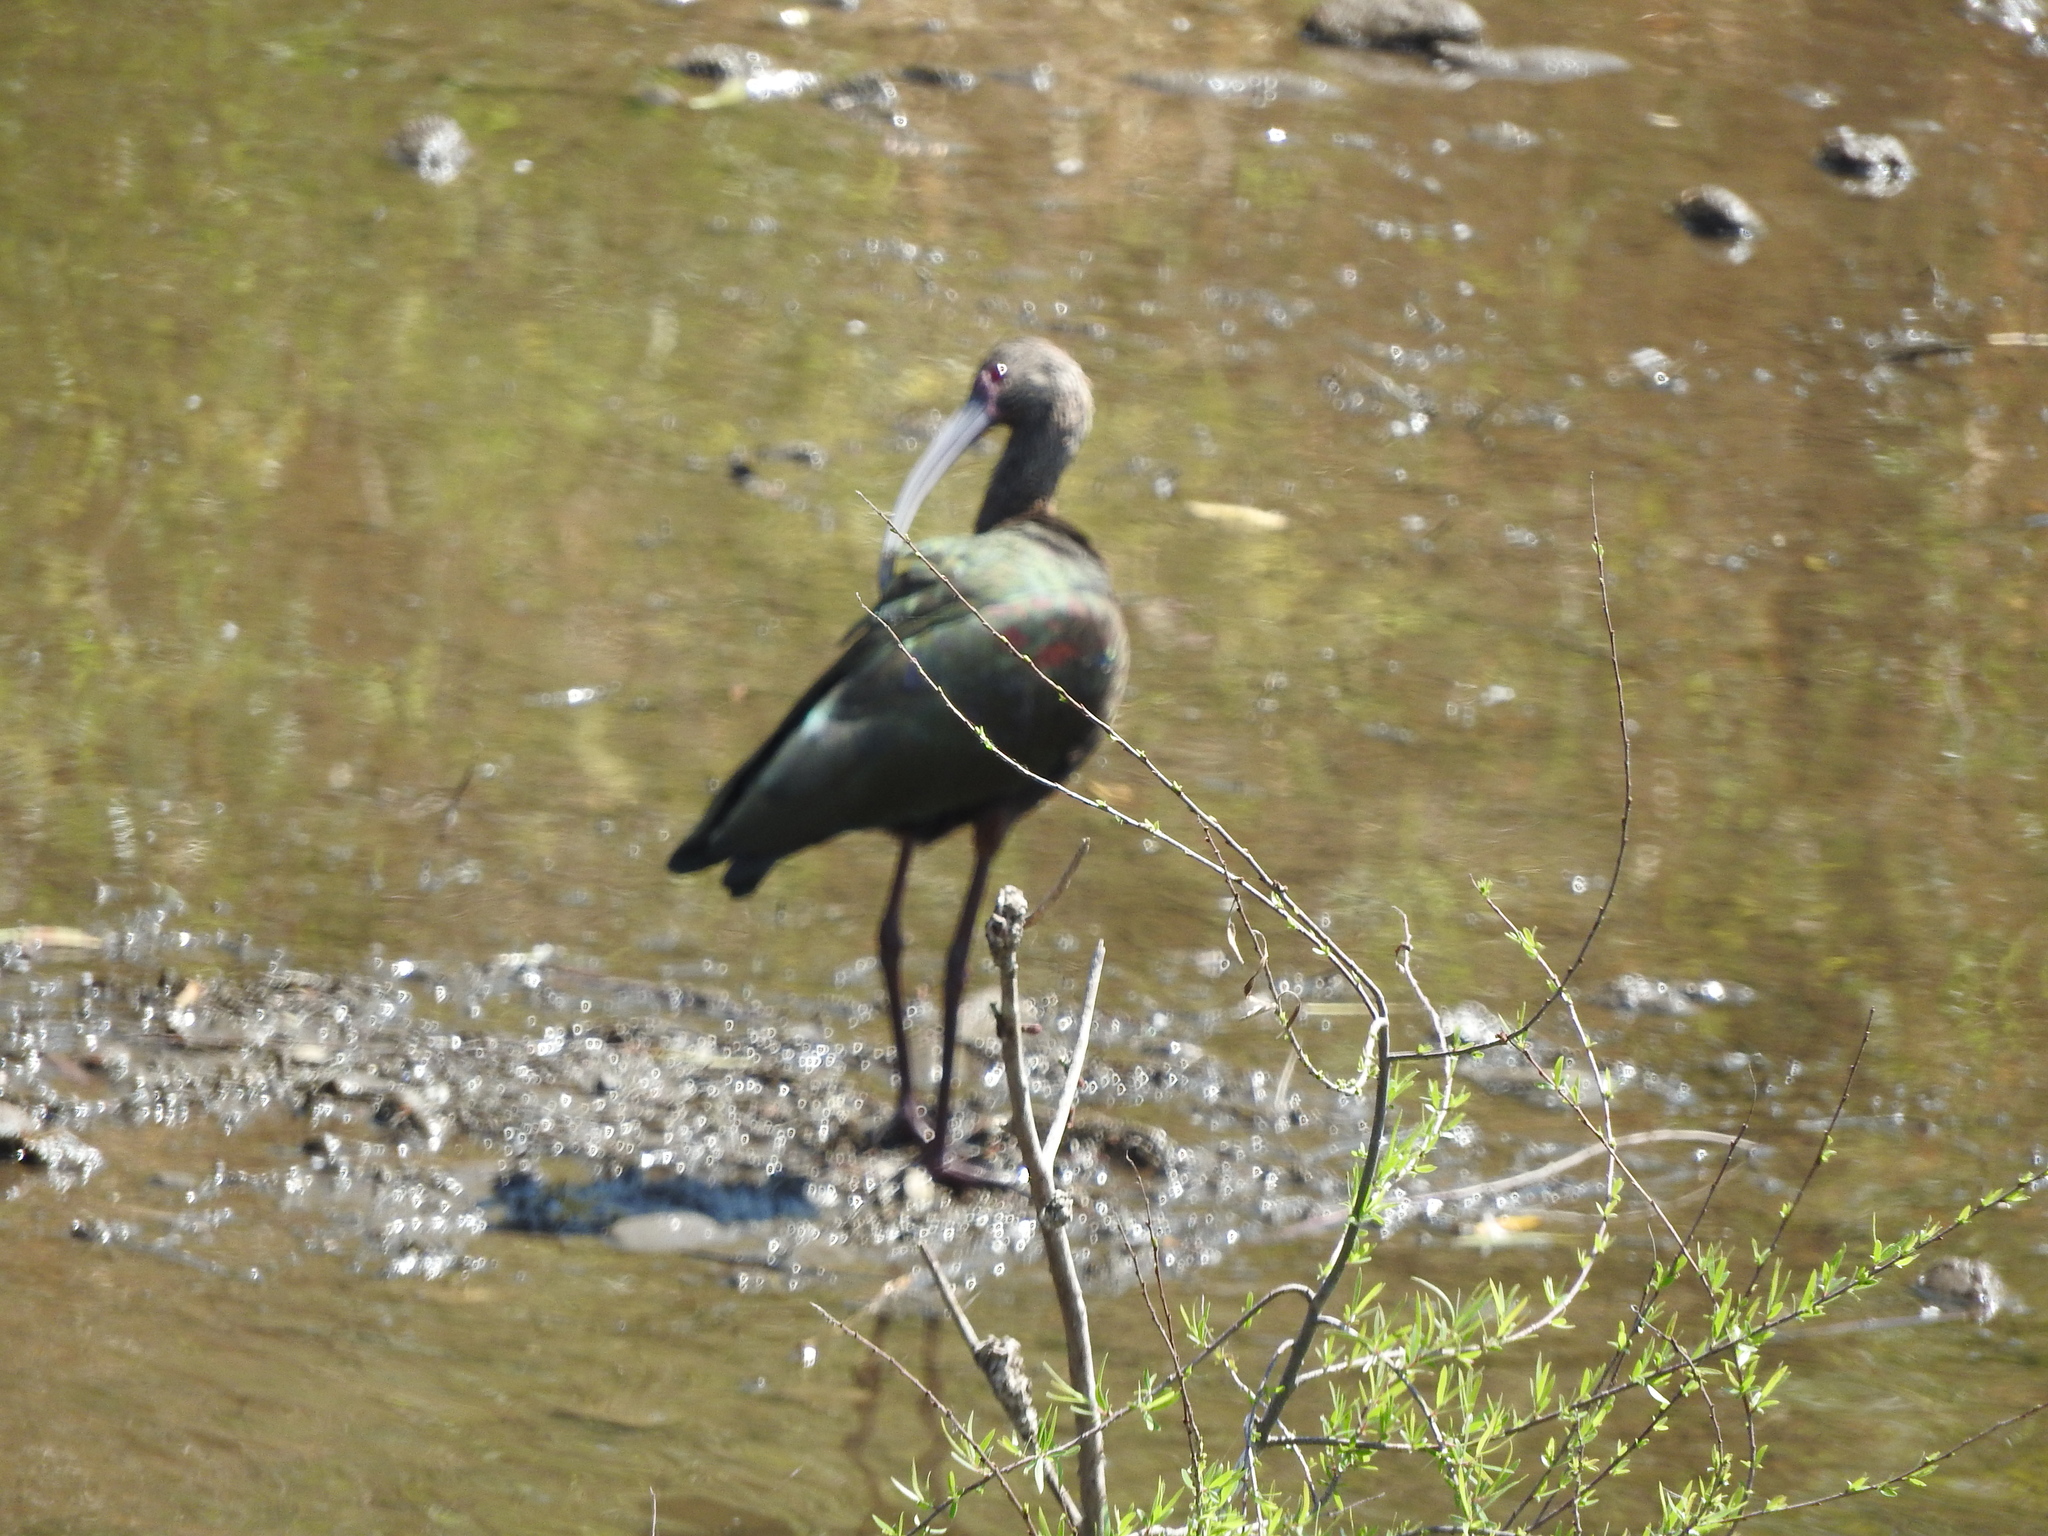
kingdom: Animalia
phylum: Chordata
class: Aves
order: Pelecaniformes
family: Threskiornithidae
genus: Plegadis
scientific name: Plegadis chihi
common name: White-faced ibis
